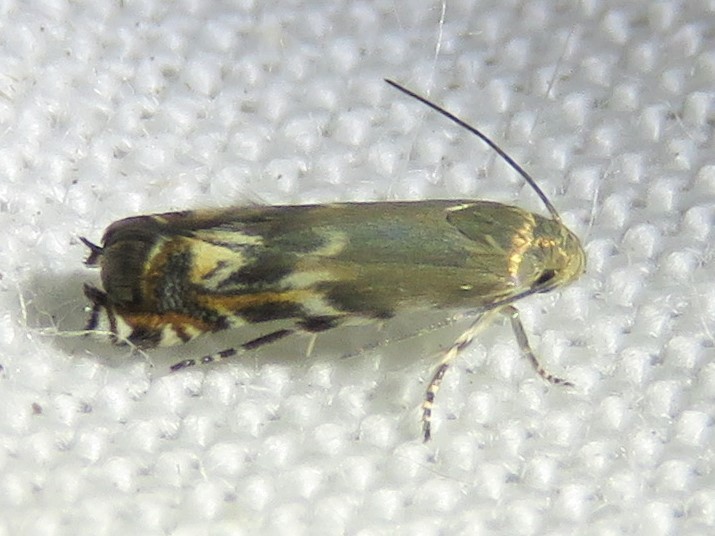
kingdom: Animalia
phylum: Arthropoda
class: Insecta
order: Lepidoptera
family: Gelechiidae
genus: Calliprora
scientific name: Calliprora sexstrigella
